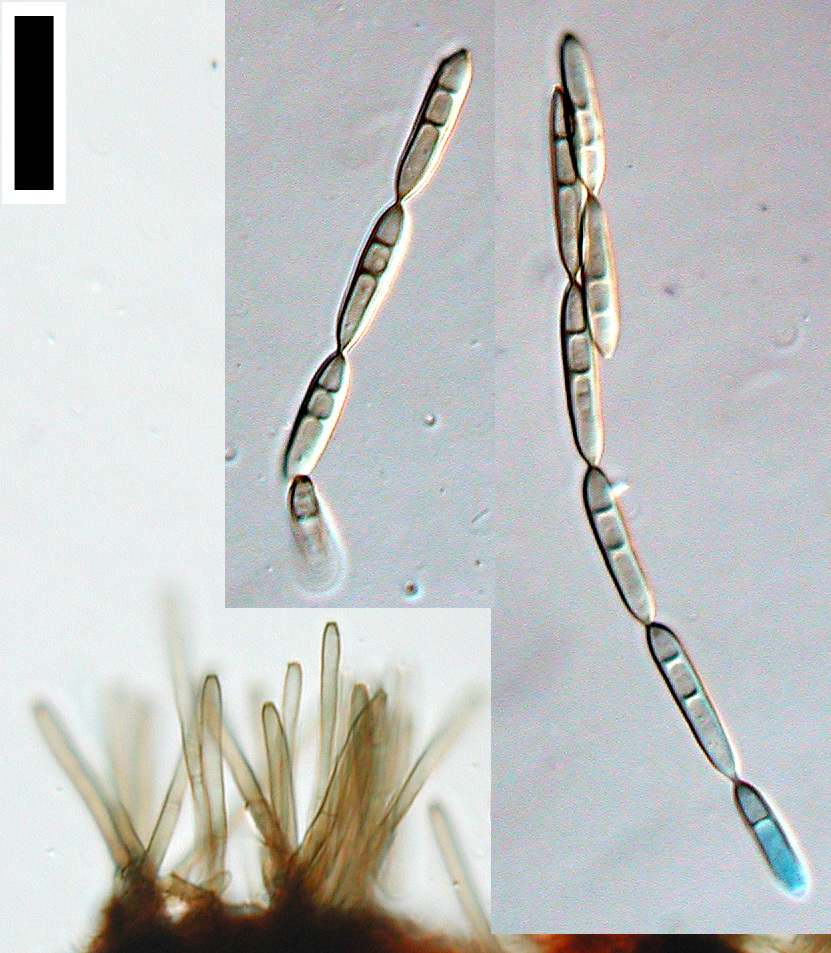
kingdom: Fungi
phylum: Ascomycota
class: Dothideomycetes
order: Pleosporales
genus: Sporidesmium
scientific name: Sporidesmium tetracoilum
